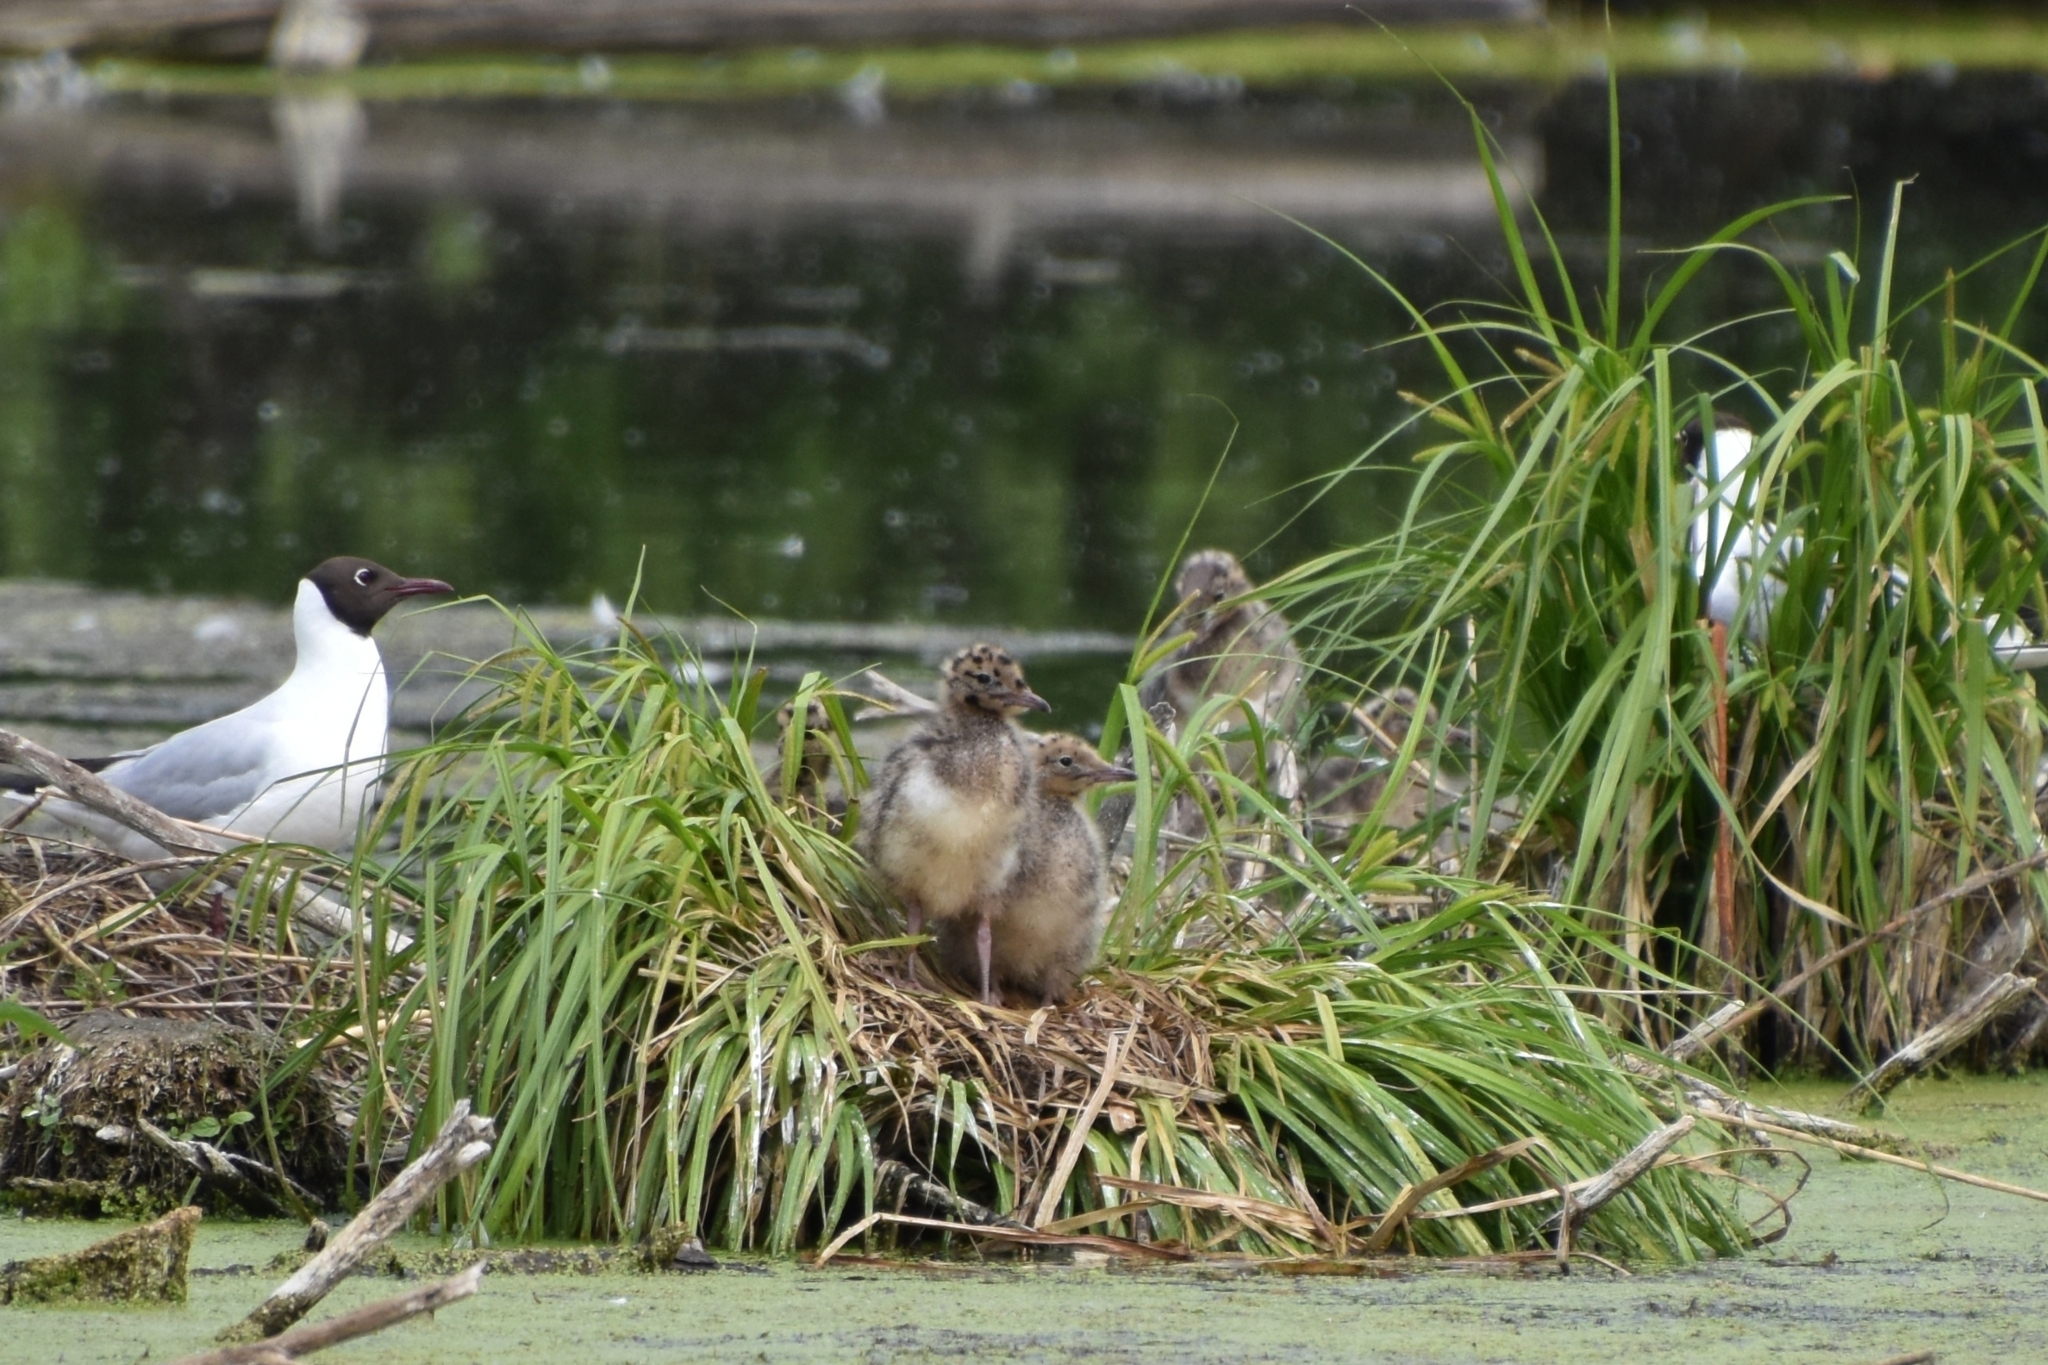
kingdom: Animalia
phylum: Chordata
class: Aves
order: Charadriiformes
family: Laridae
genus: Chroicocephalus
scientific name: Chroicocephalus ridibundus
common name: Black-headed gull
